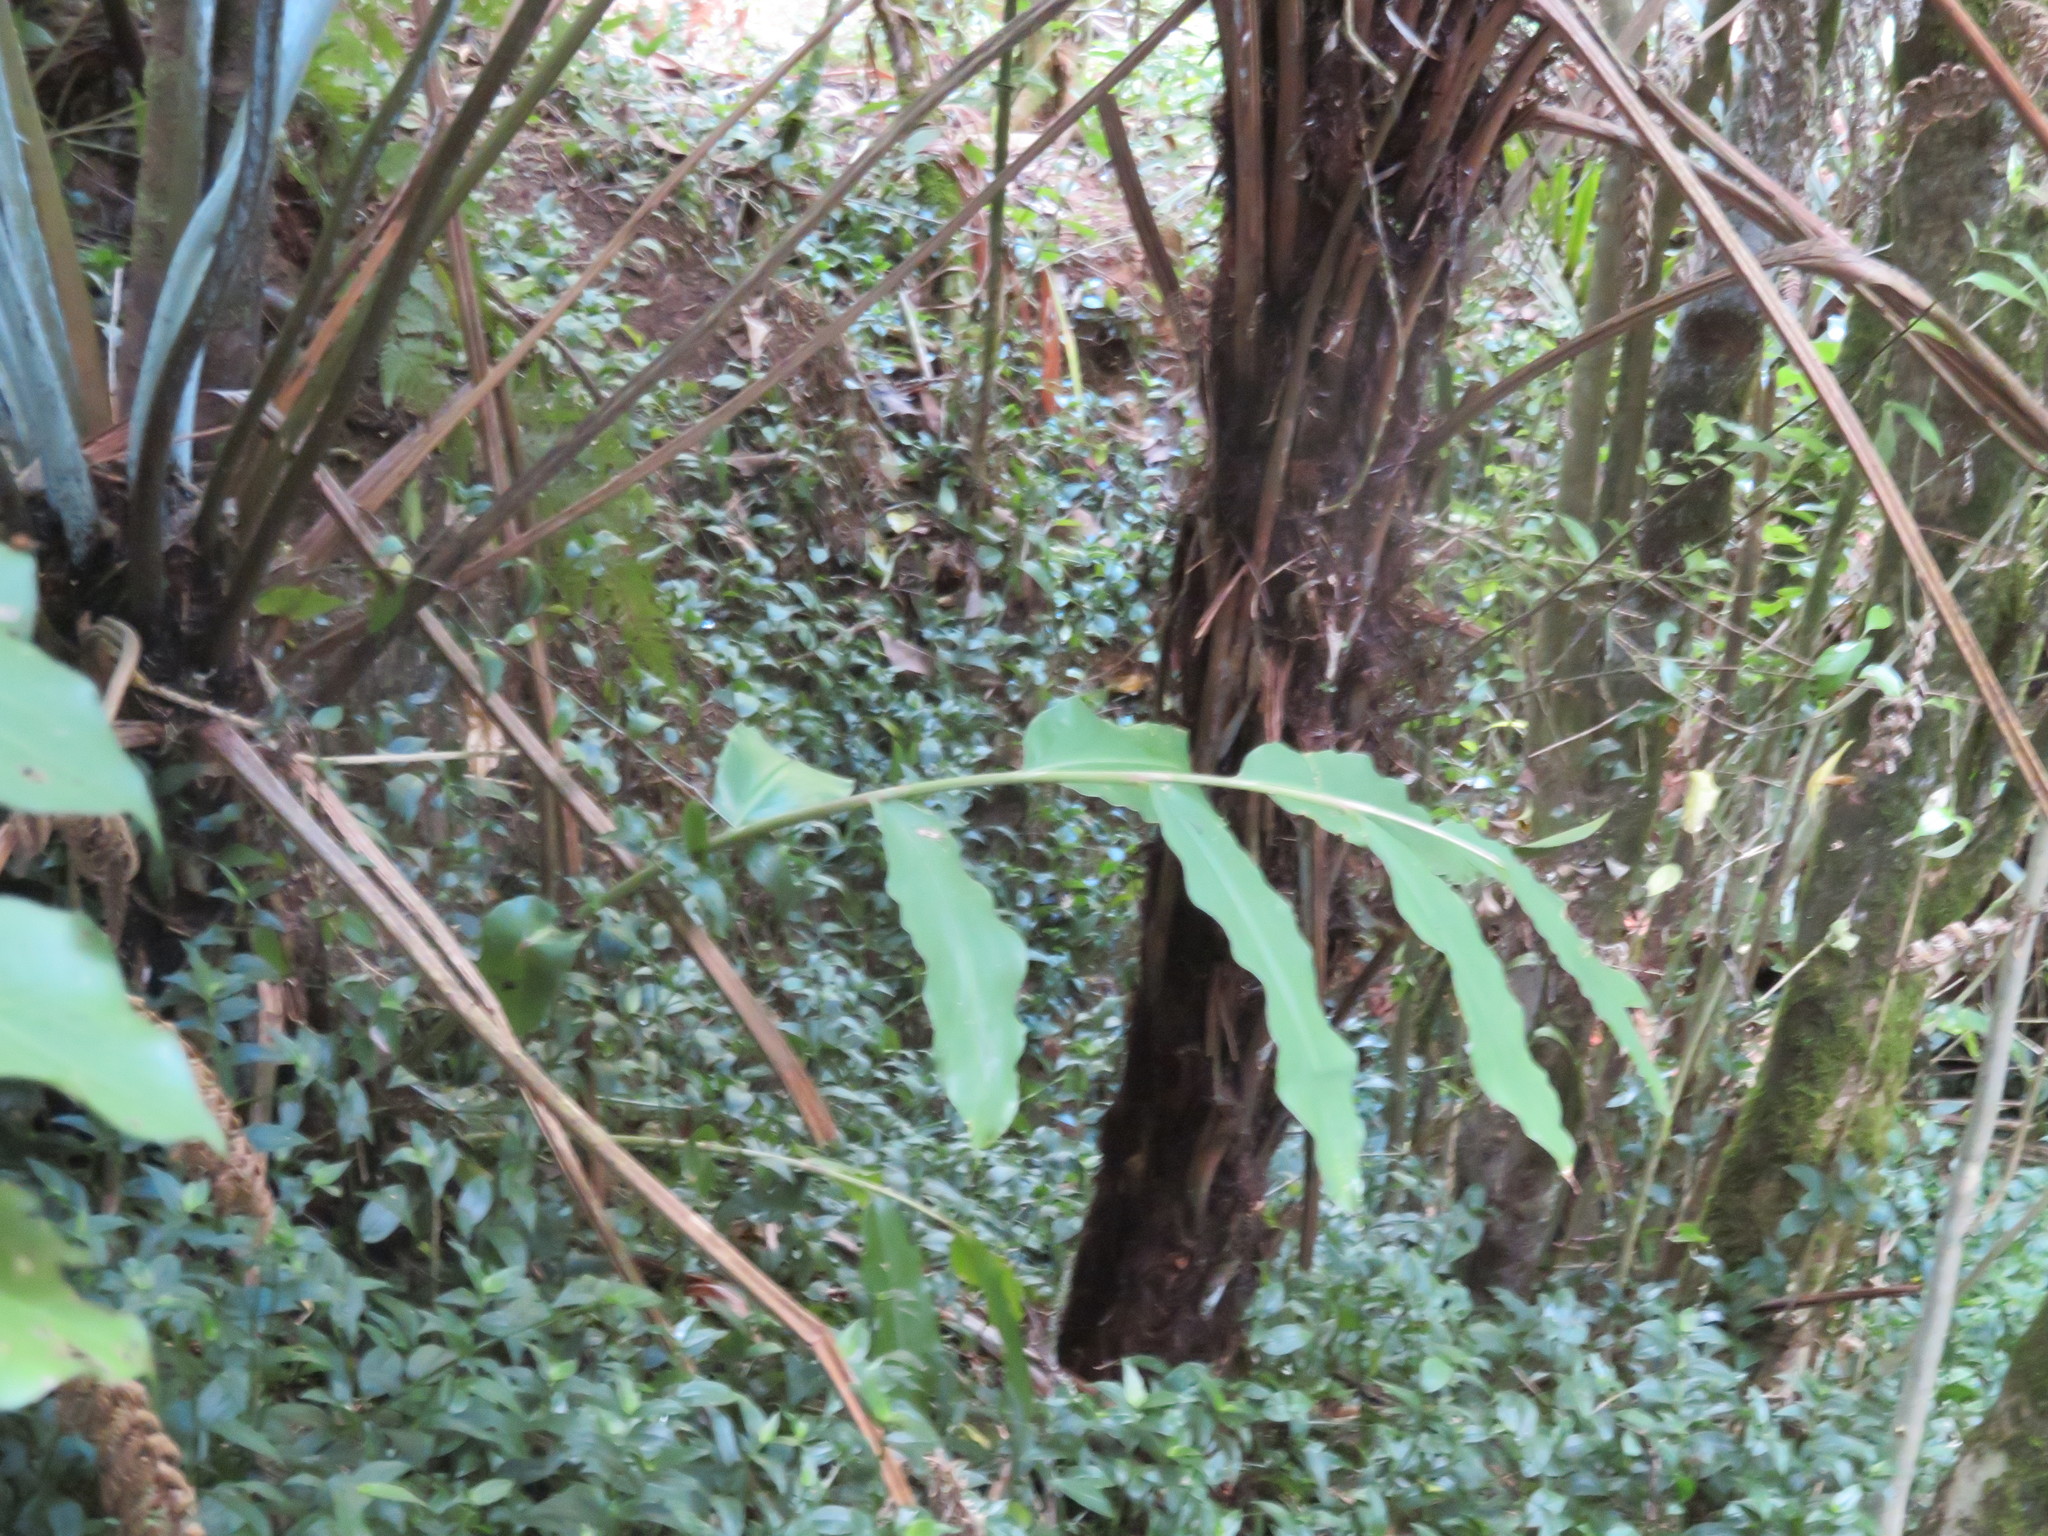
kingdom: Plantae
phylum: Tracheophyta
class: Liliopsida
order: Zingiberales
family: Zingiberaceae
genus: Hedychium
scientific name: Hedychium gardnerianum
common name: Himalayan ginger
